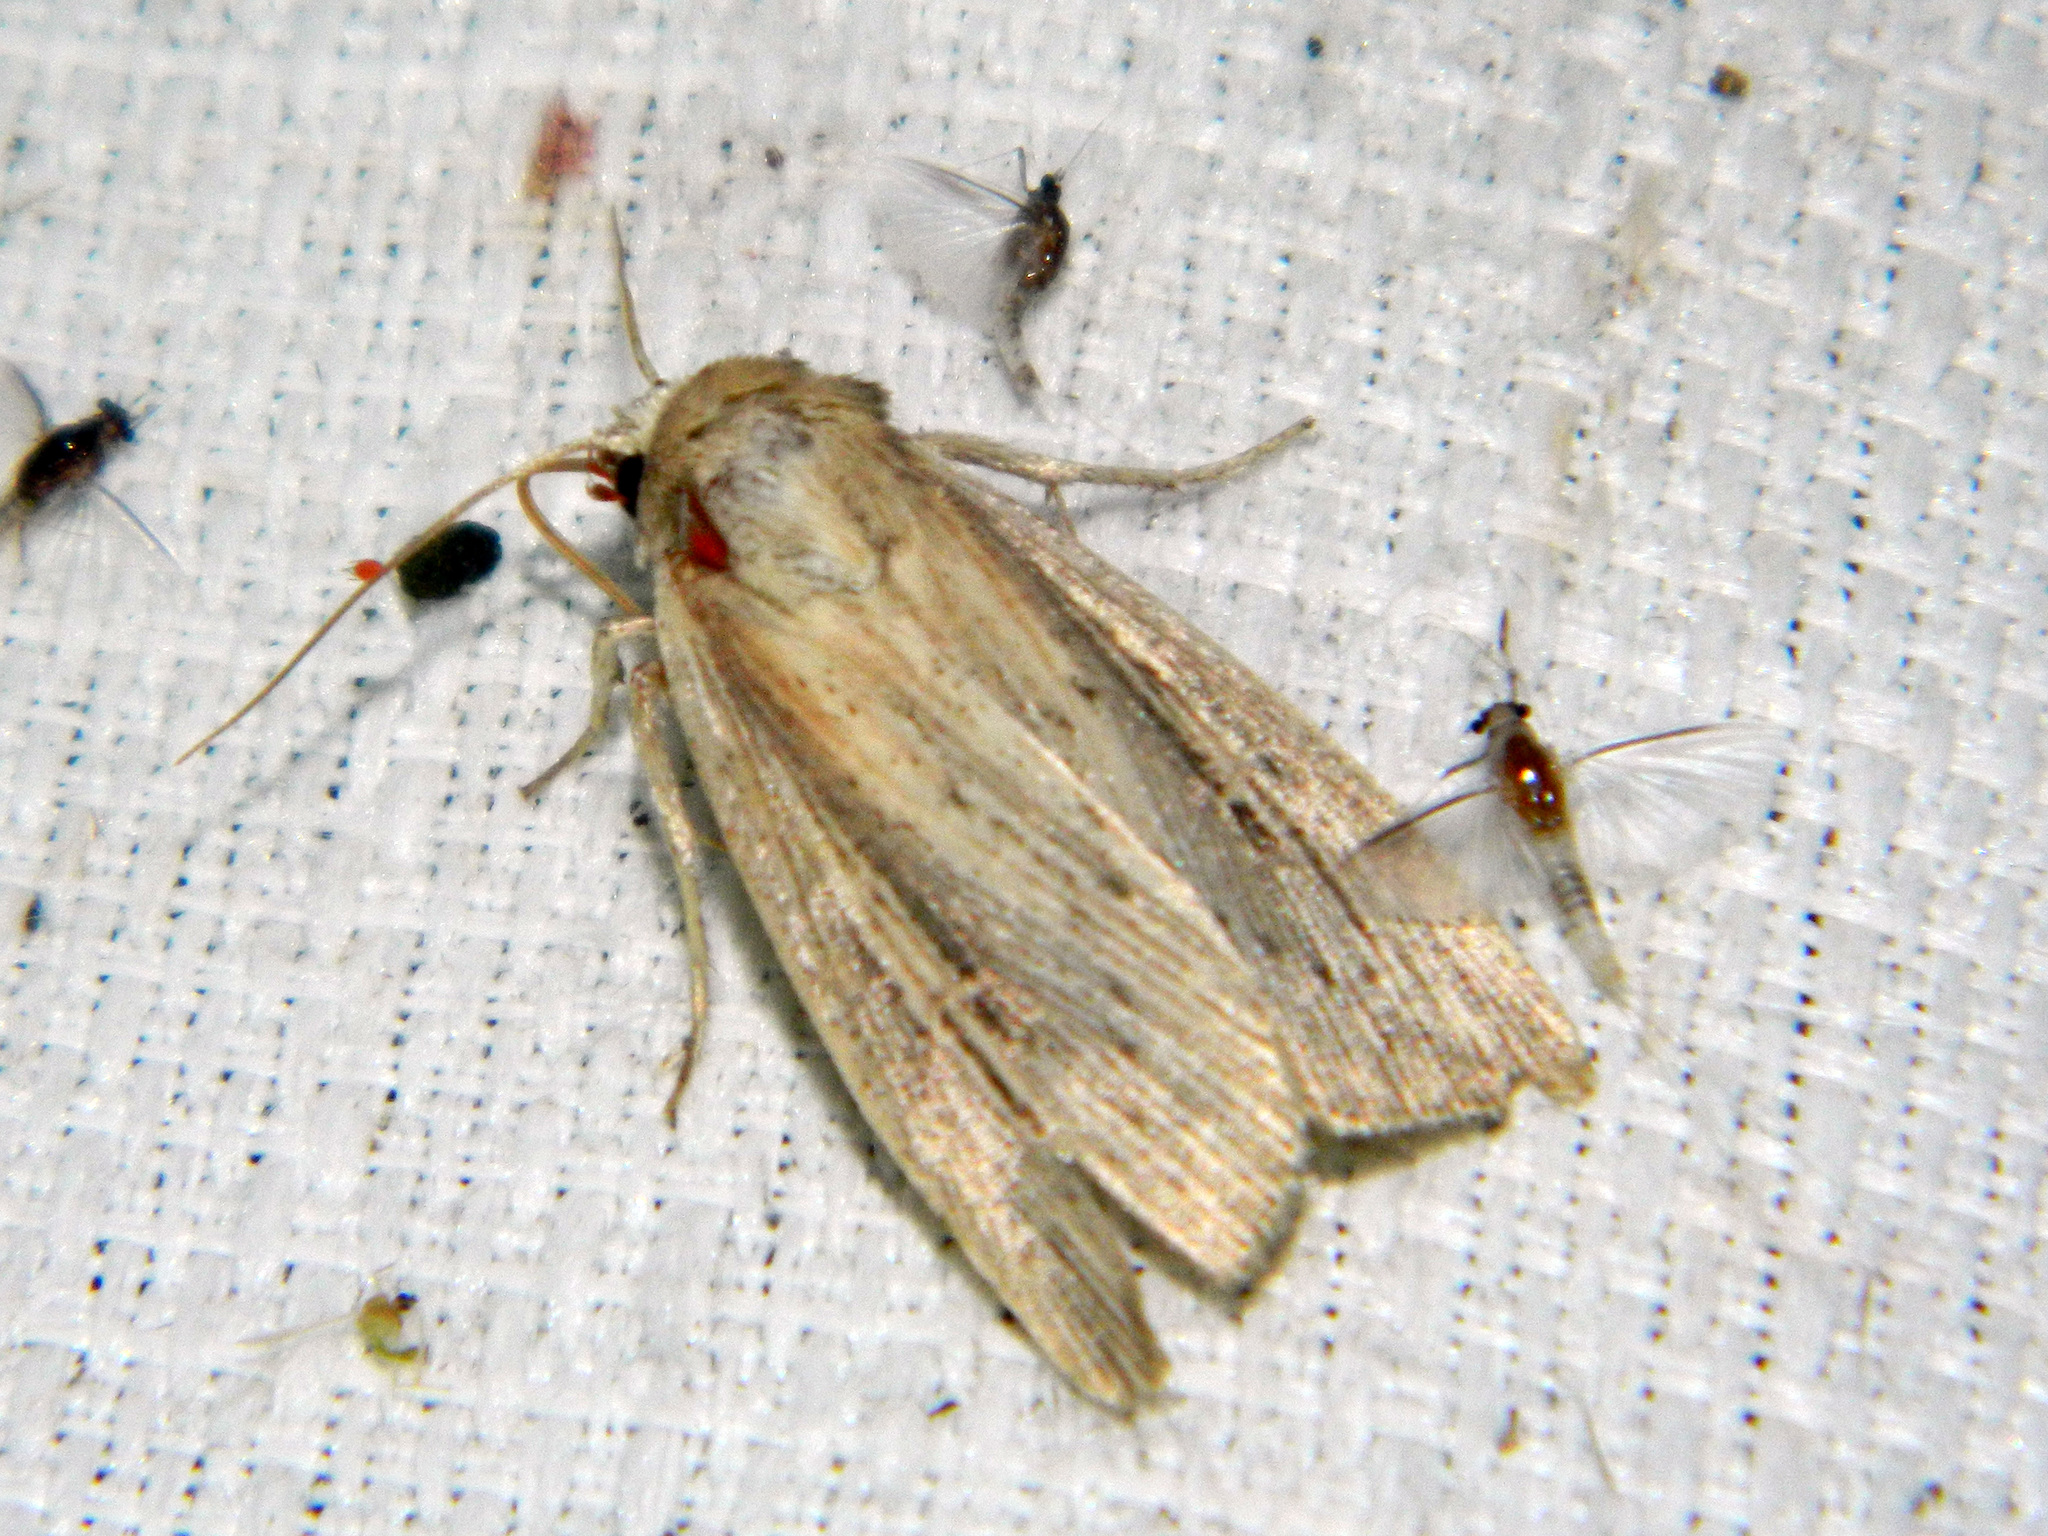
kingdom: Animalia
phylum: Arthropoda
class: Insecta
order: Lepidoptera
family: Noctuidae
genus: Mythimna
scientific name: Mythimna oxygala
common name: Lesser wainscot
